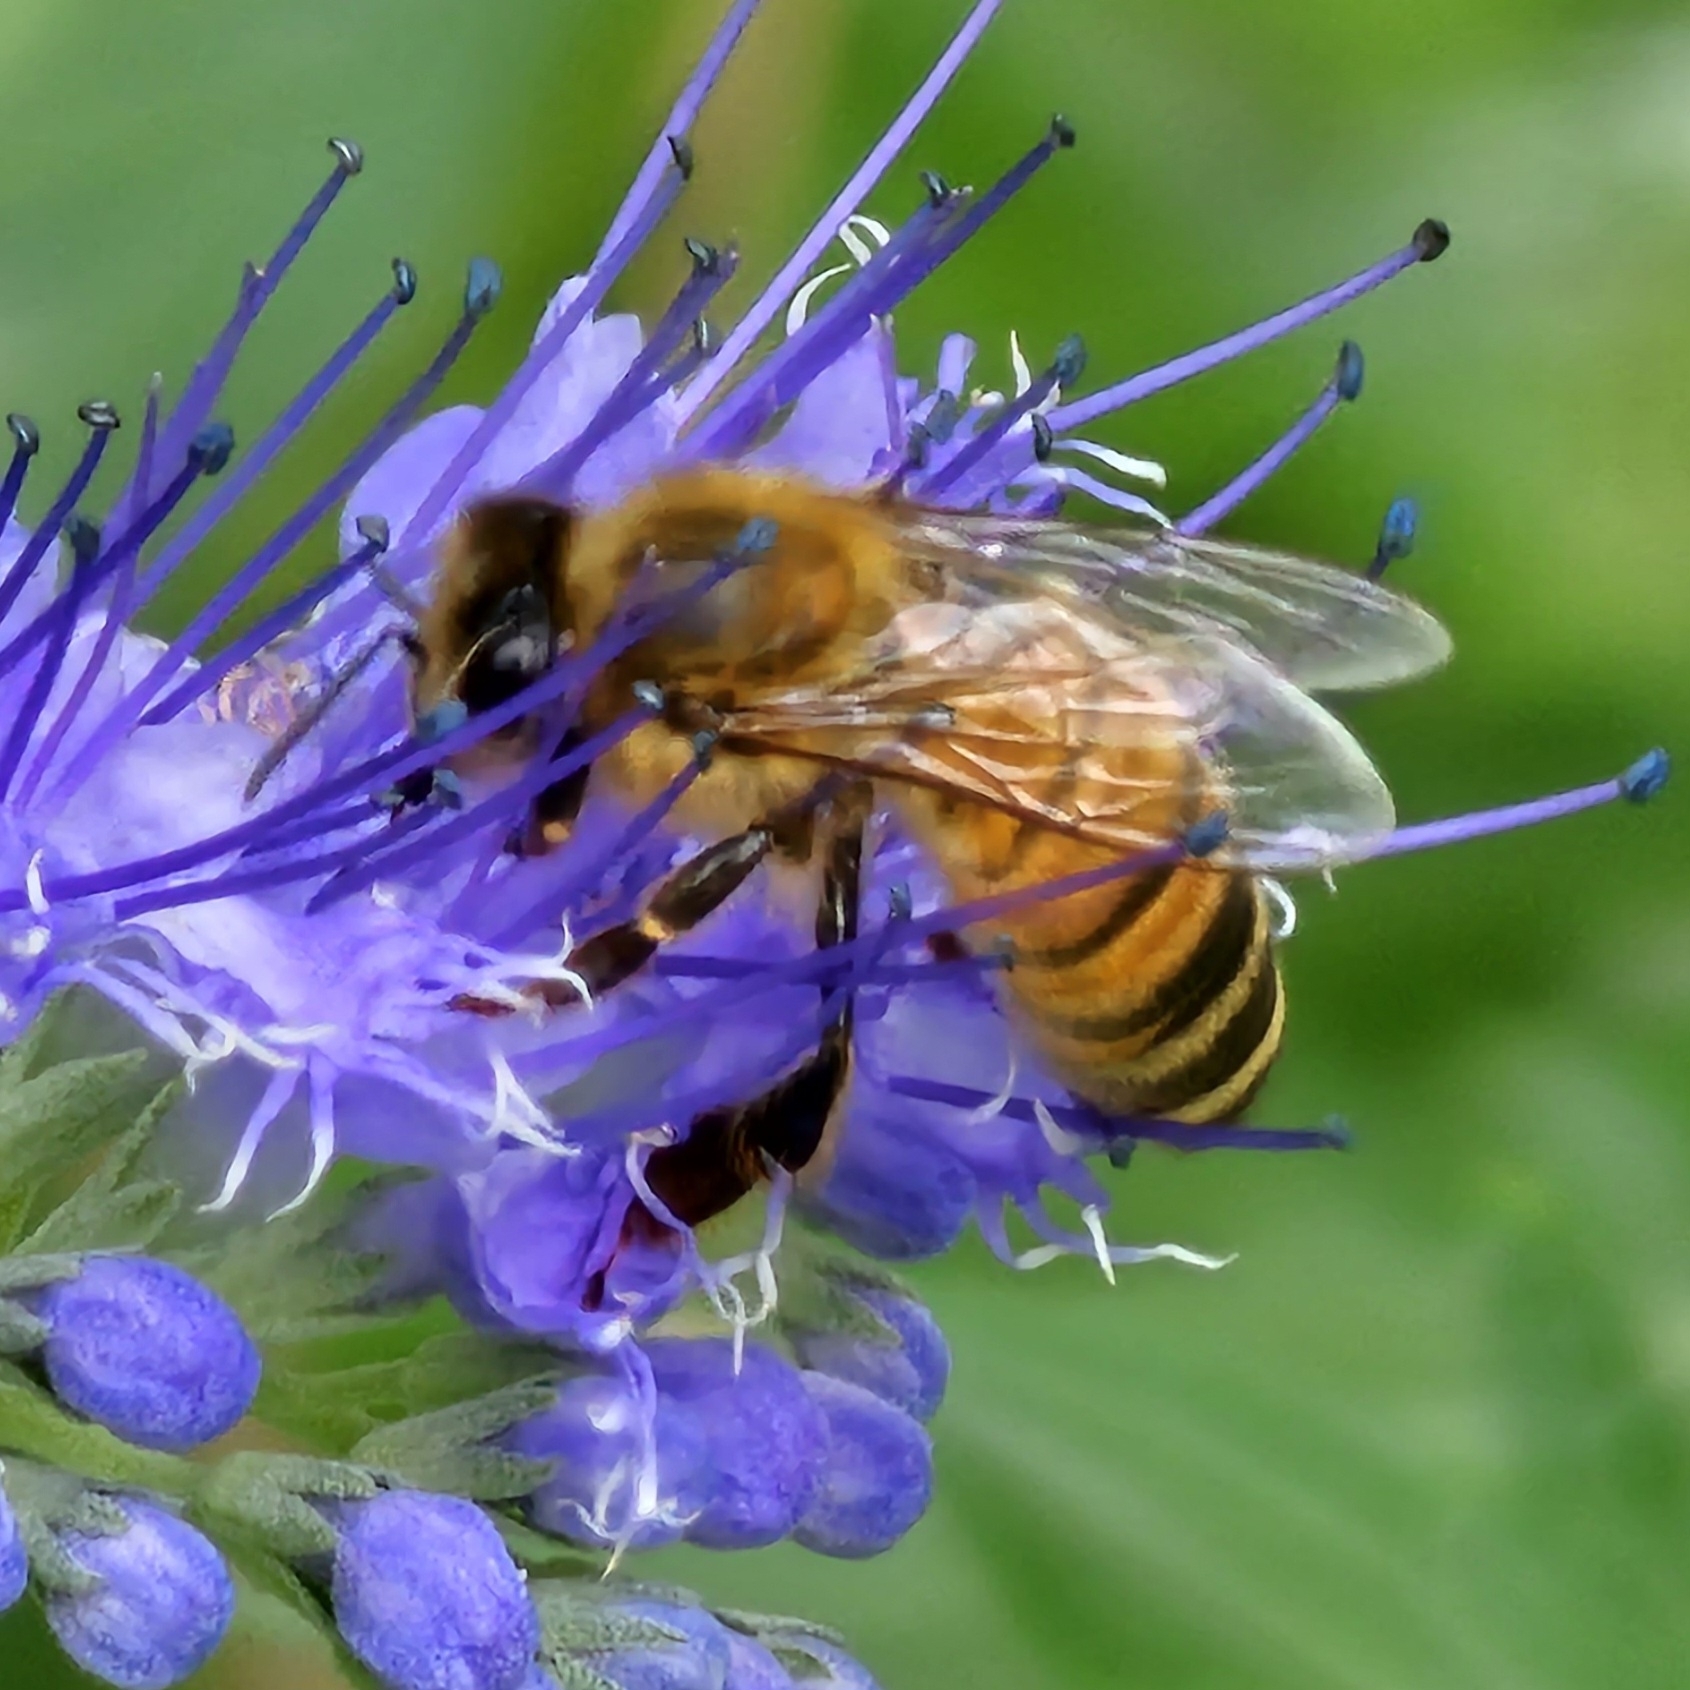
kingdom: Animalia
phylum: Arthropoda
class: Insecta
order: Hymenoptera
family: Apidae
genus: Apis
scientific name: Apis mellifera
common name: Honey bee
